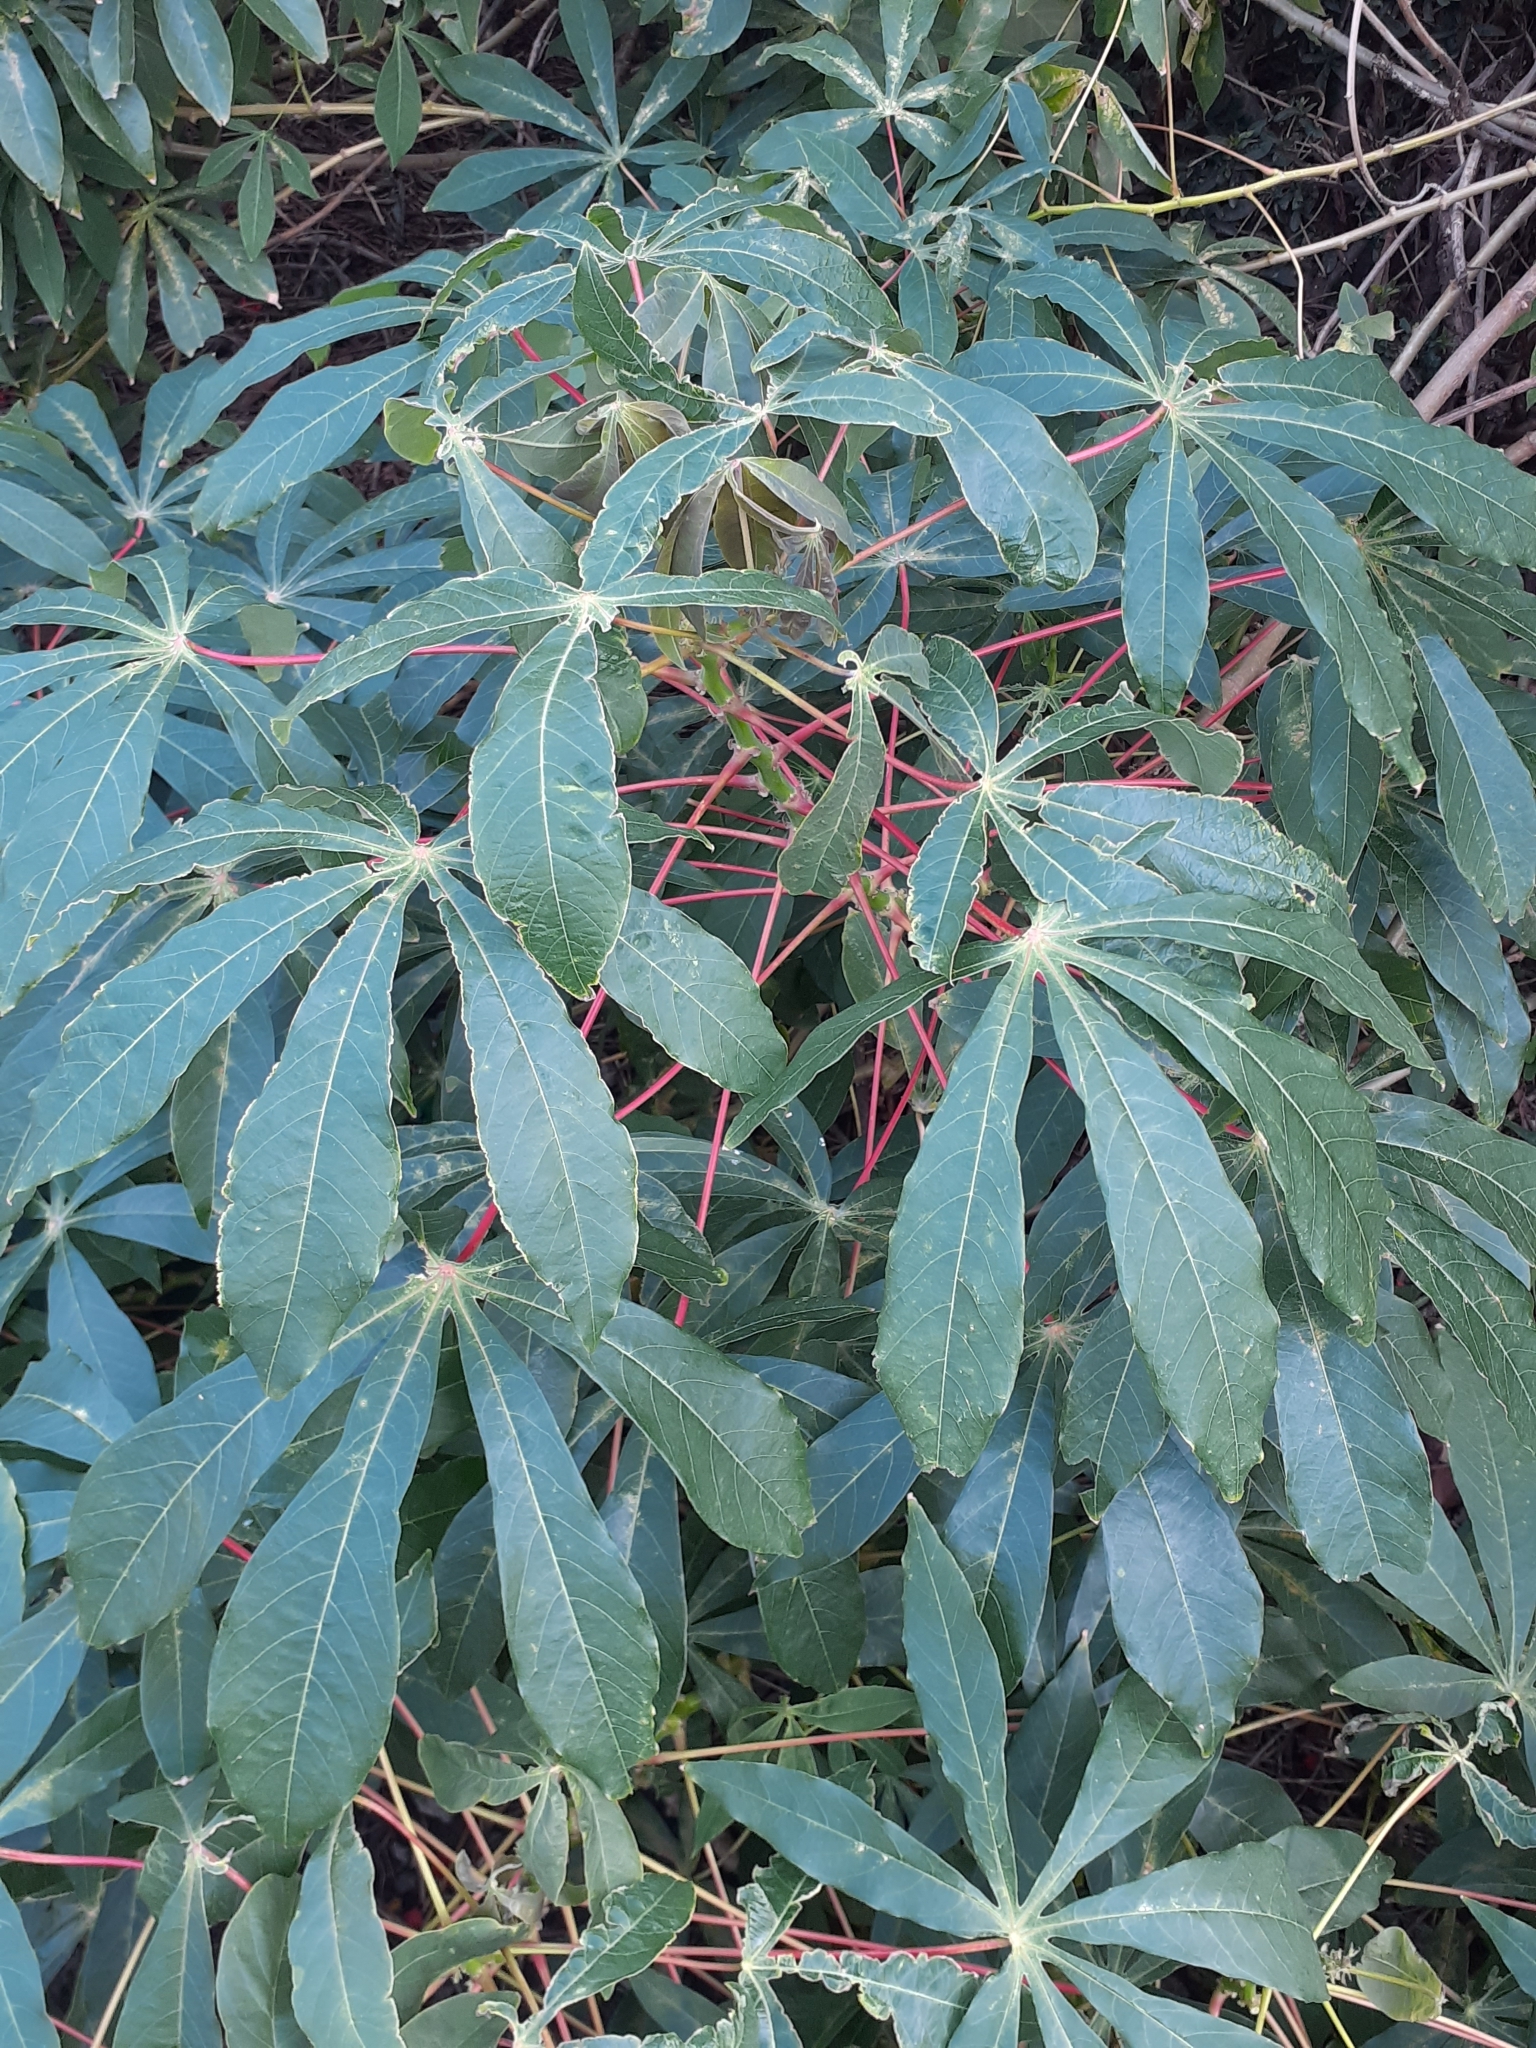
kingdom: Plantae
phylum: Tracheophyta
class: Magnoliopsida
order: Malpighiales
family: Euphorbiaceae
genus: Manihot
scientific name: Manihot esculenta
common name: Cassava
